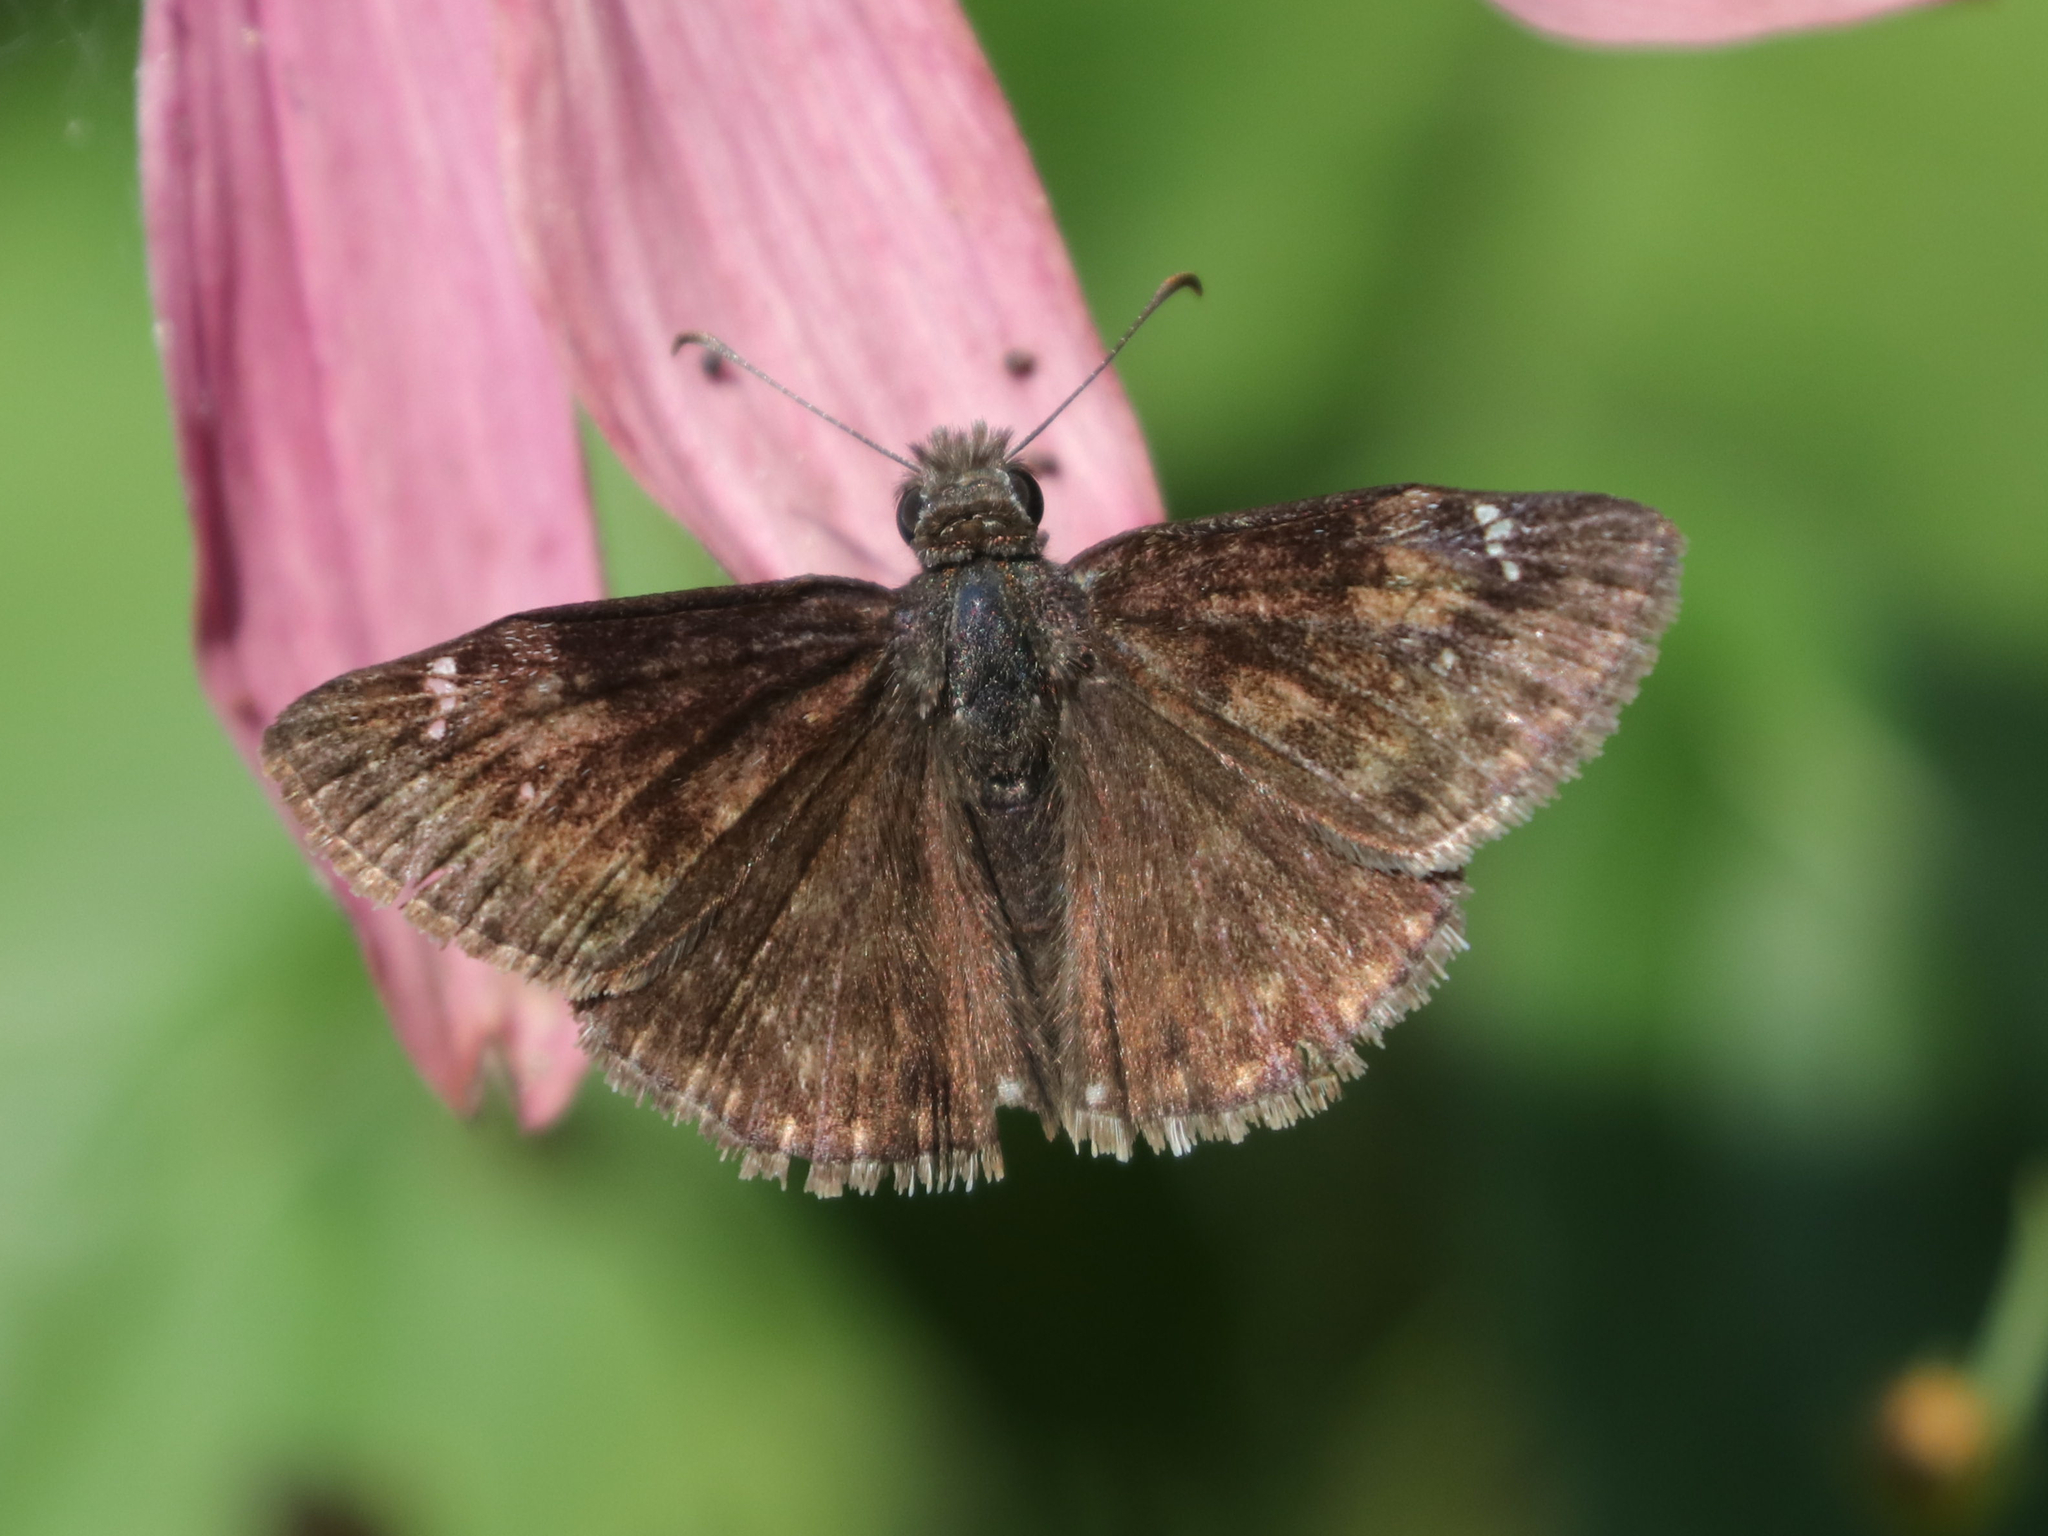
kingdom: Animalia
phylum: Arthropoda
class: Insecta
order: Lepidoptera
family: Hesperiidae
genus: Erynnis
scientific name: Erynnis baptisiae
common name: Wild indigo duskywing
